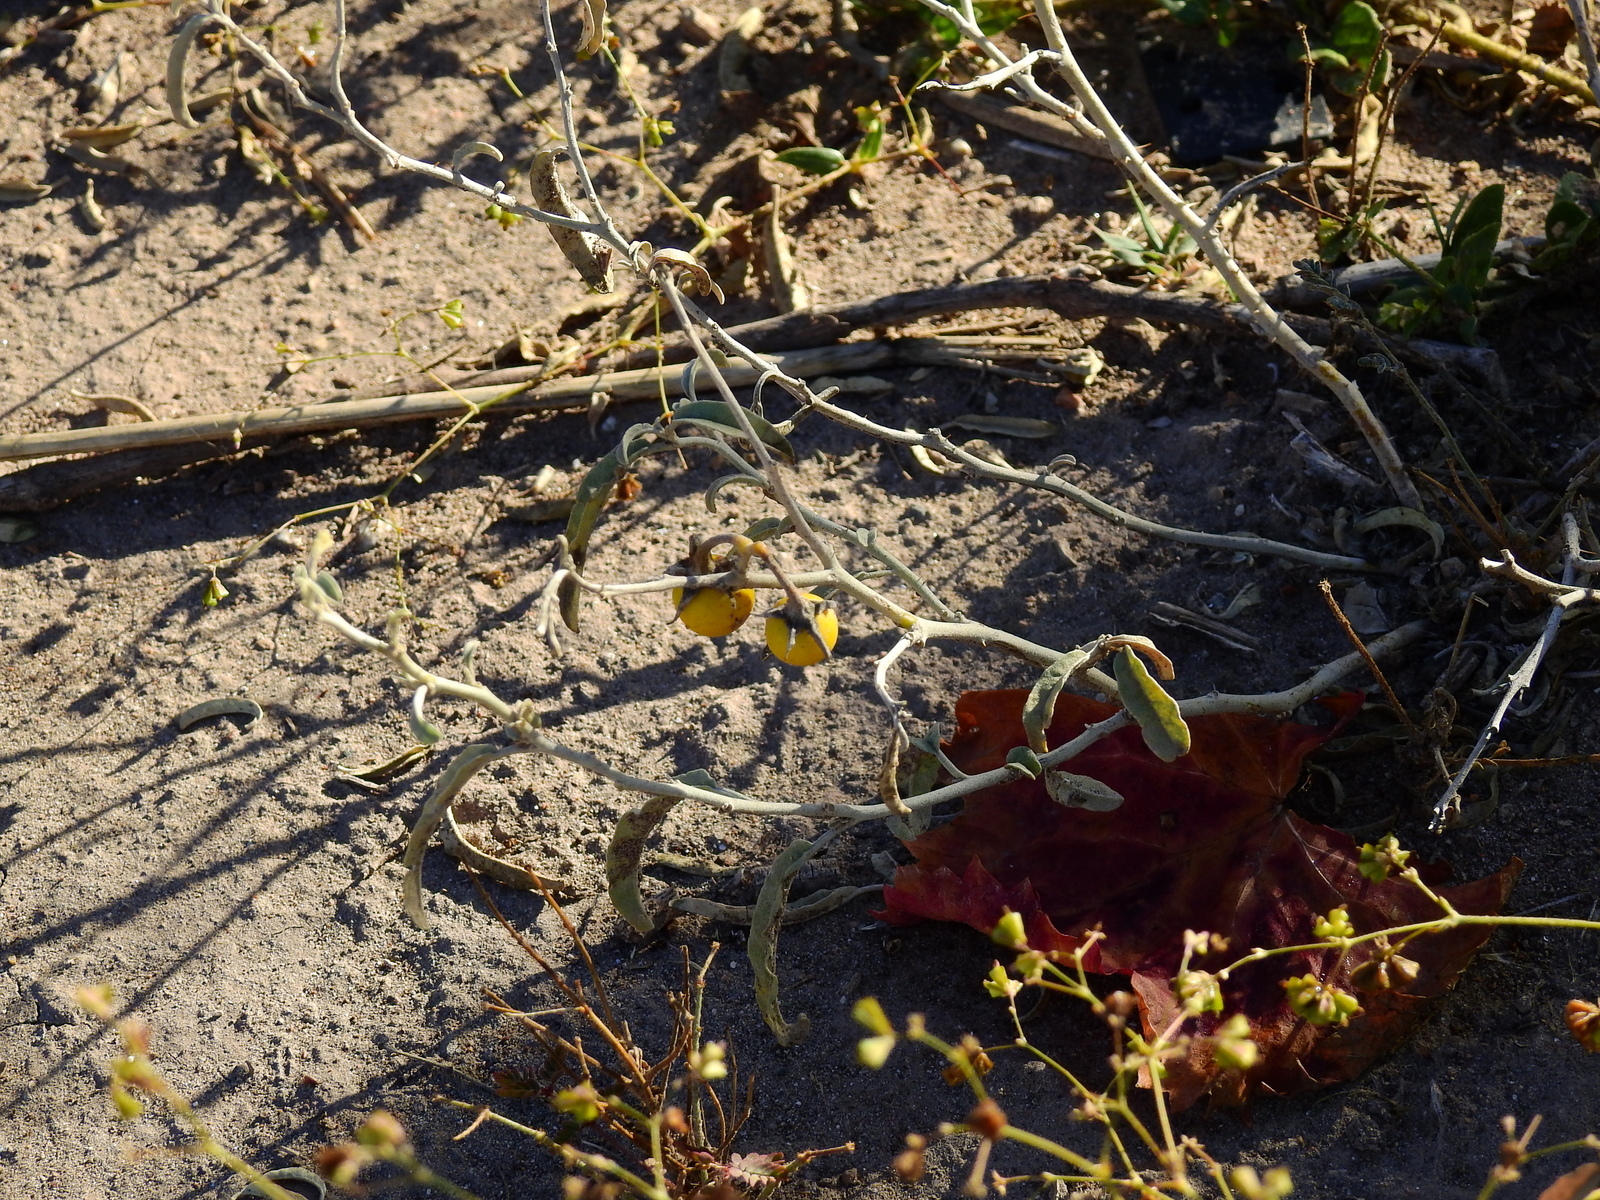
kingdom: Plantae
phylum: Tracheophyta
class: Magnoliopsida
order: Solanales
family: Solanaceae
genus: Solanum
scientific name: Solanum elaeagnifolium
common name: Silverleaf nightshade
